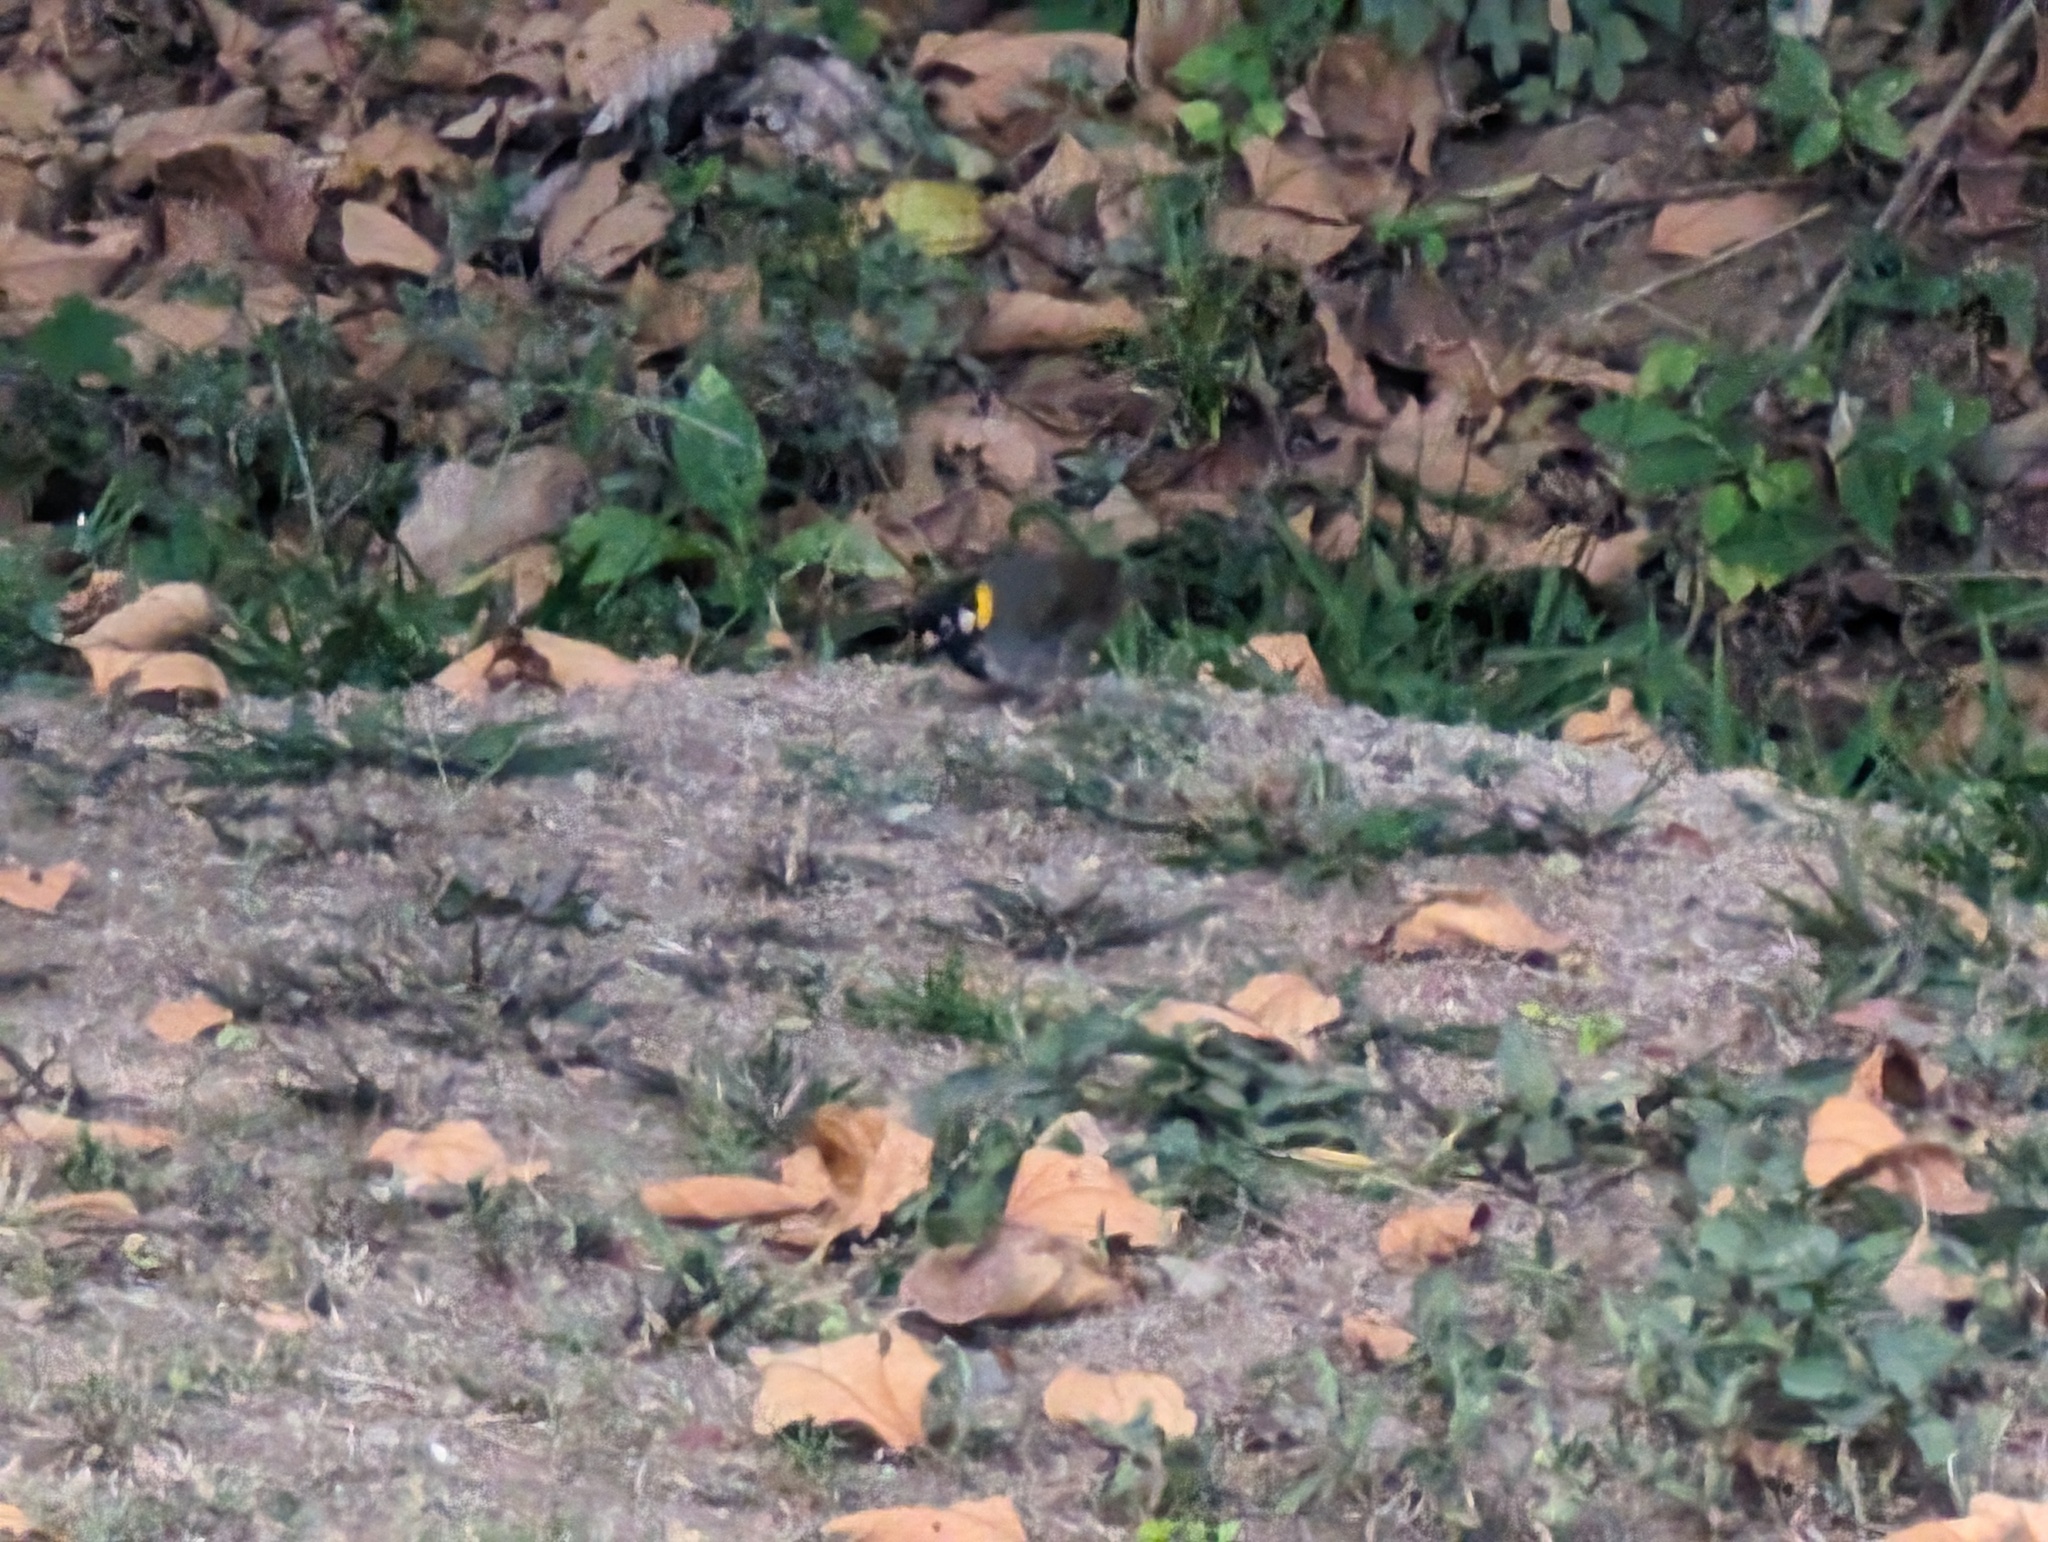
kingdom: Animalia
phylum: Chordata
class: Aves
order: Passeriformes
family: Passerellidae
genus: Melozone
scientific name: Melozone leucotis
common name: White-eared ground-sparrow
